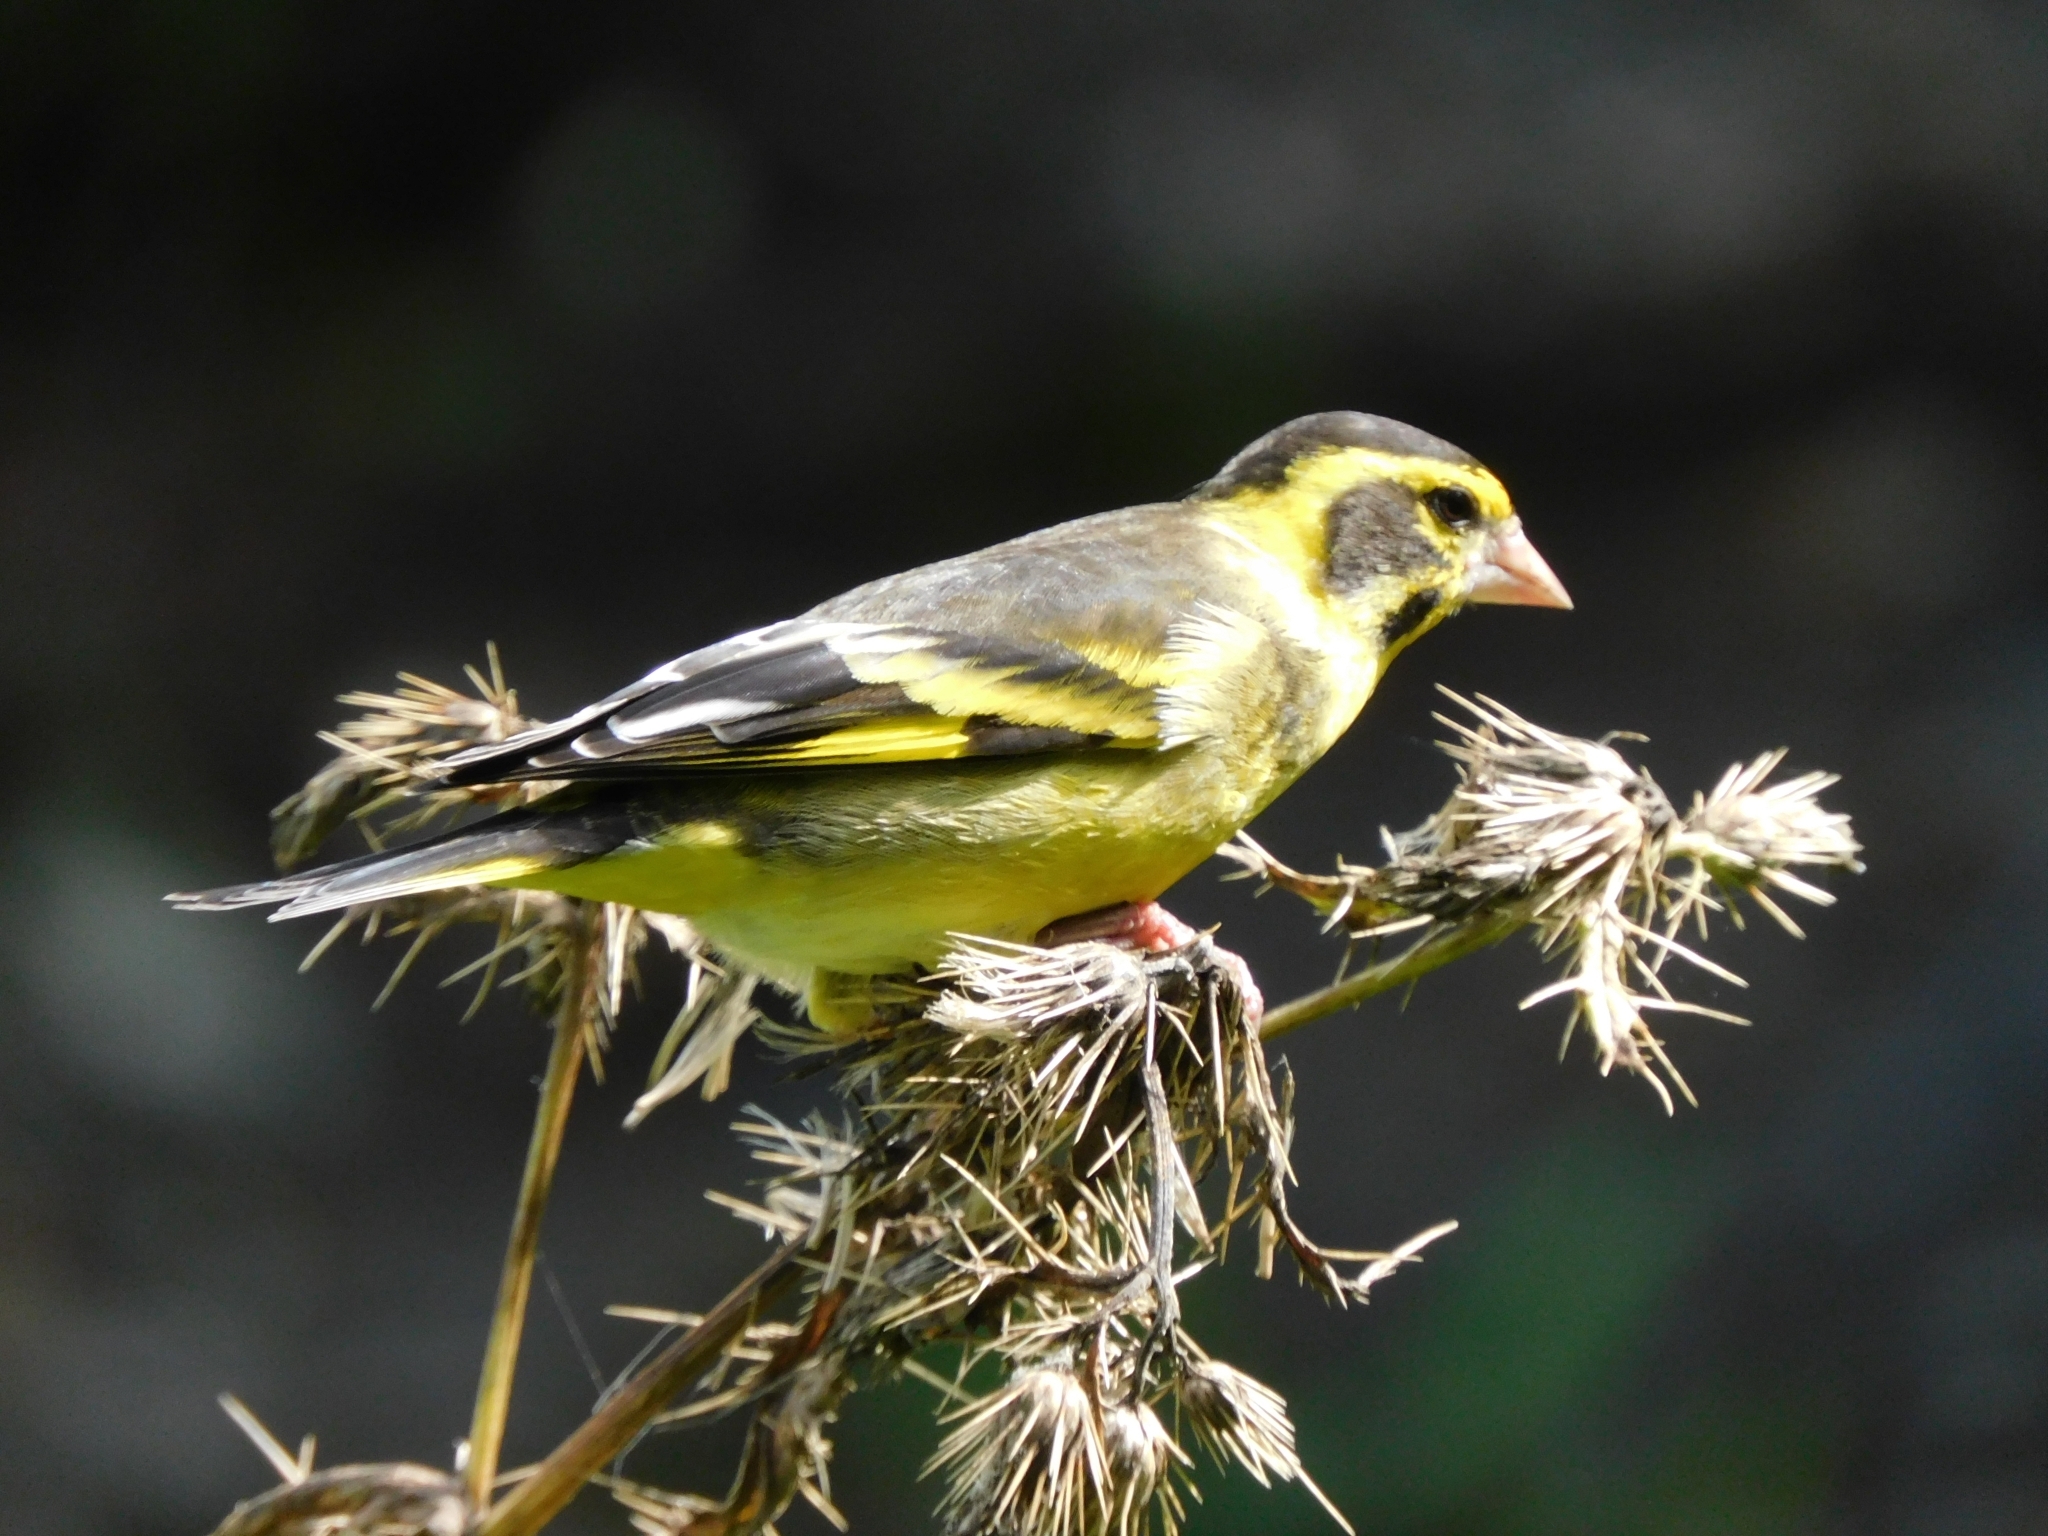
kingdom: Animalia
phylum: Chordata
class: Aves
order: Passeriformes
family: Fringillidae
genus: Chloris
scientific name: Chloris spinoides
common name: Yellow-breasted greenfinch
